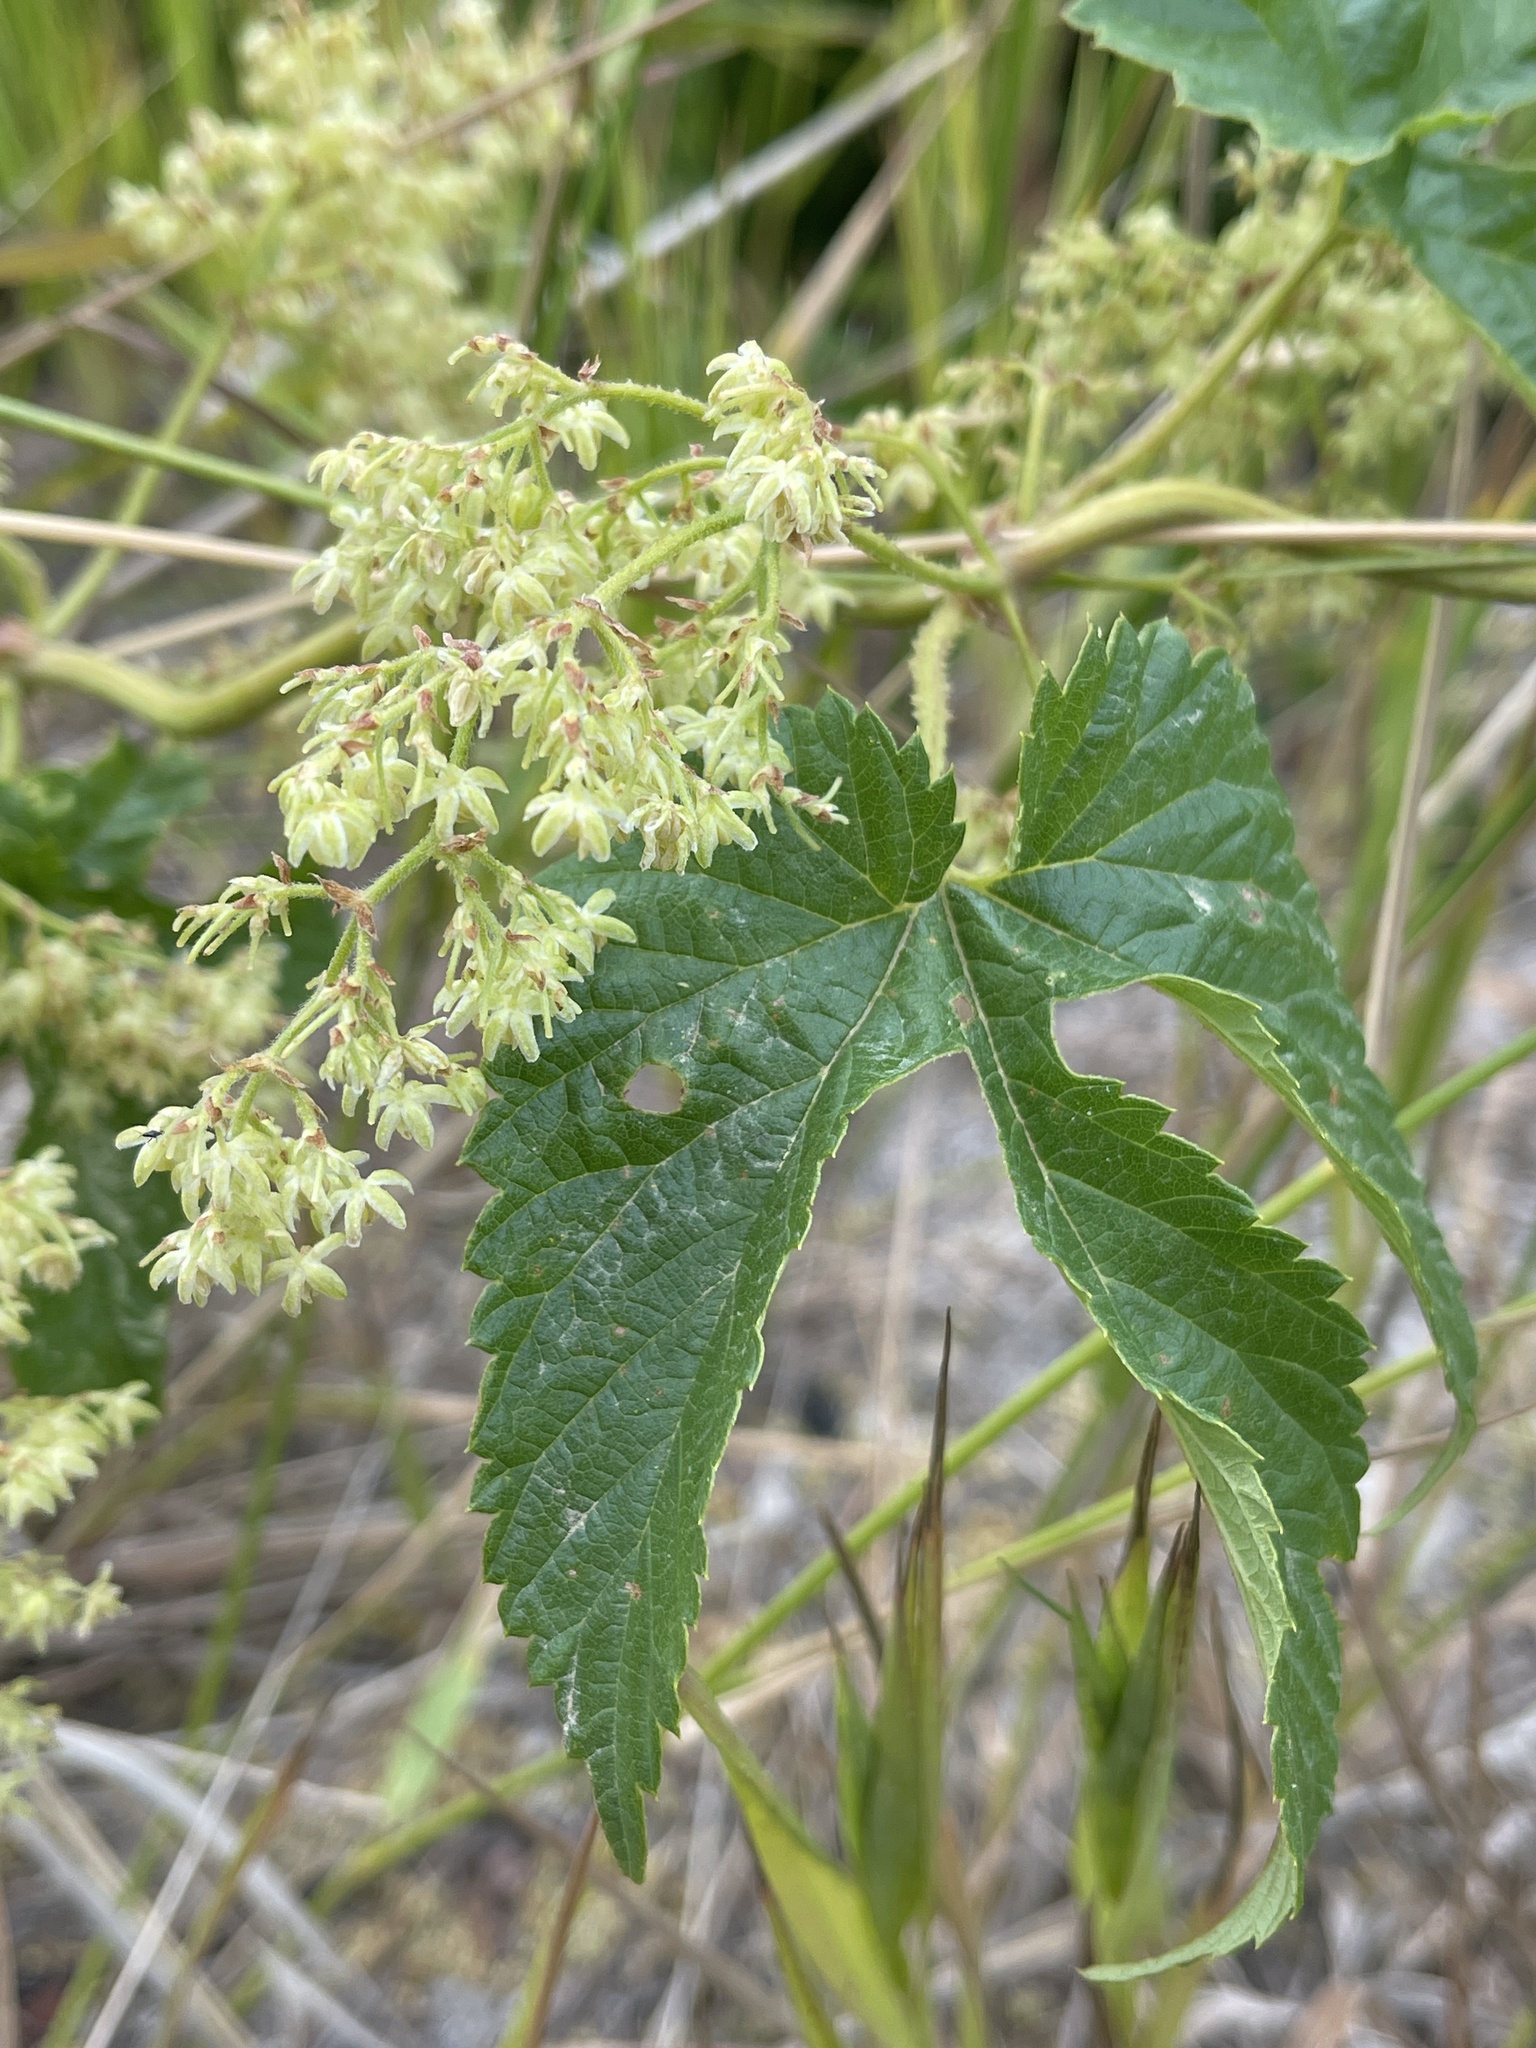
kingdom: Plantae
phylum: Tracheophyta
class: Magnoliopsida
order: Rosales
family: Cannabaceae
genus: Humulus
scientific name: Humulus lupulus
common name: Hop
